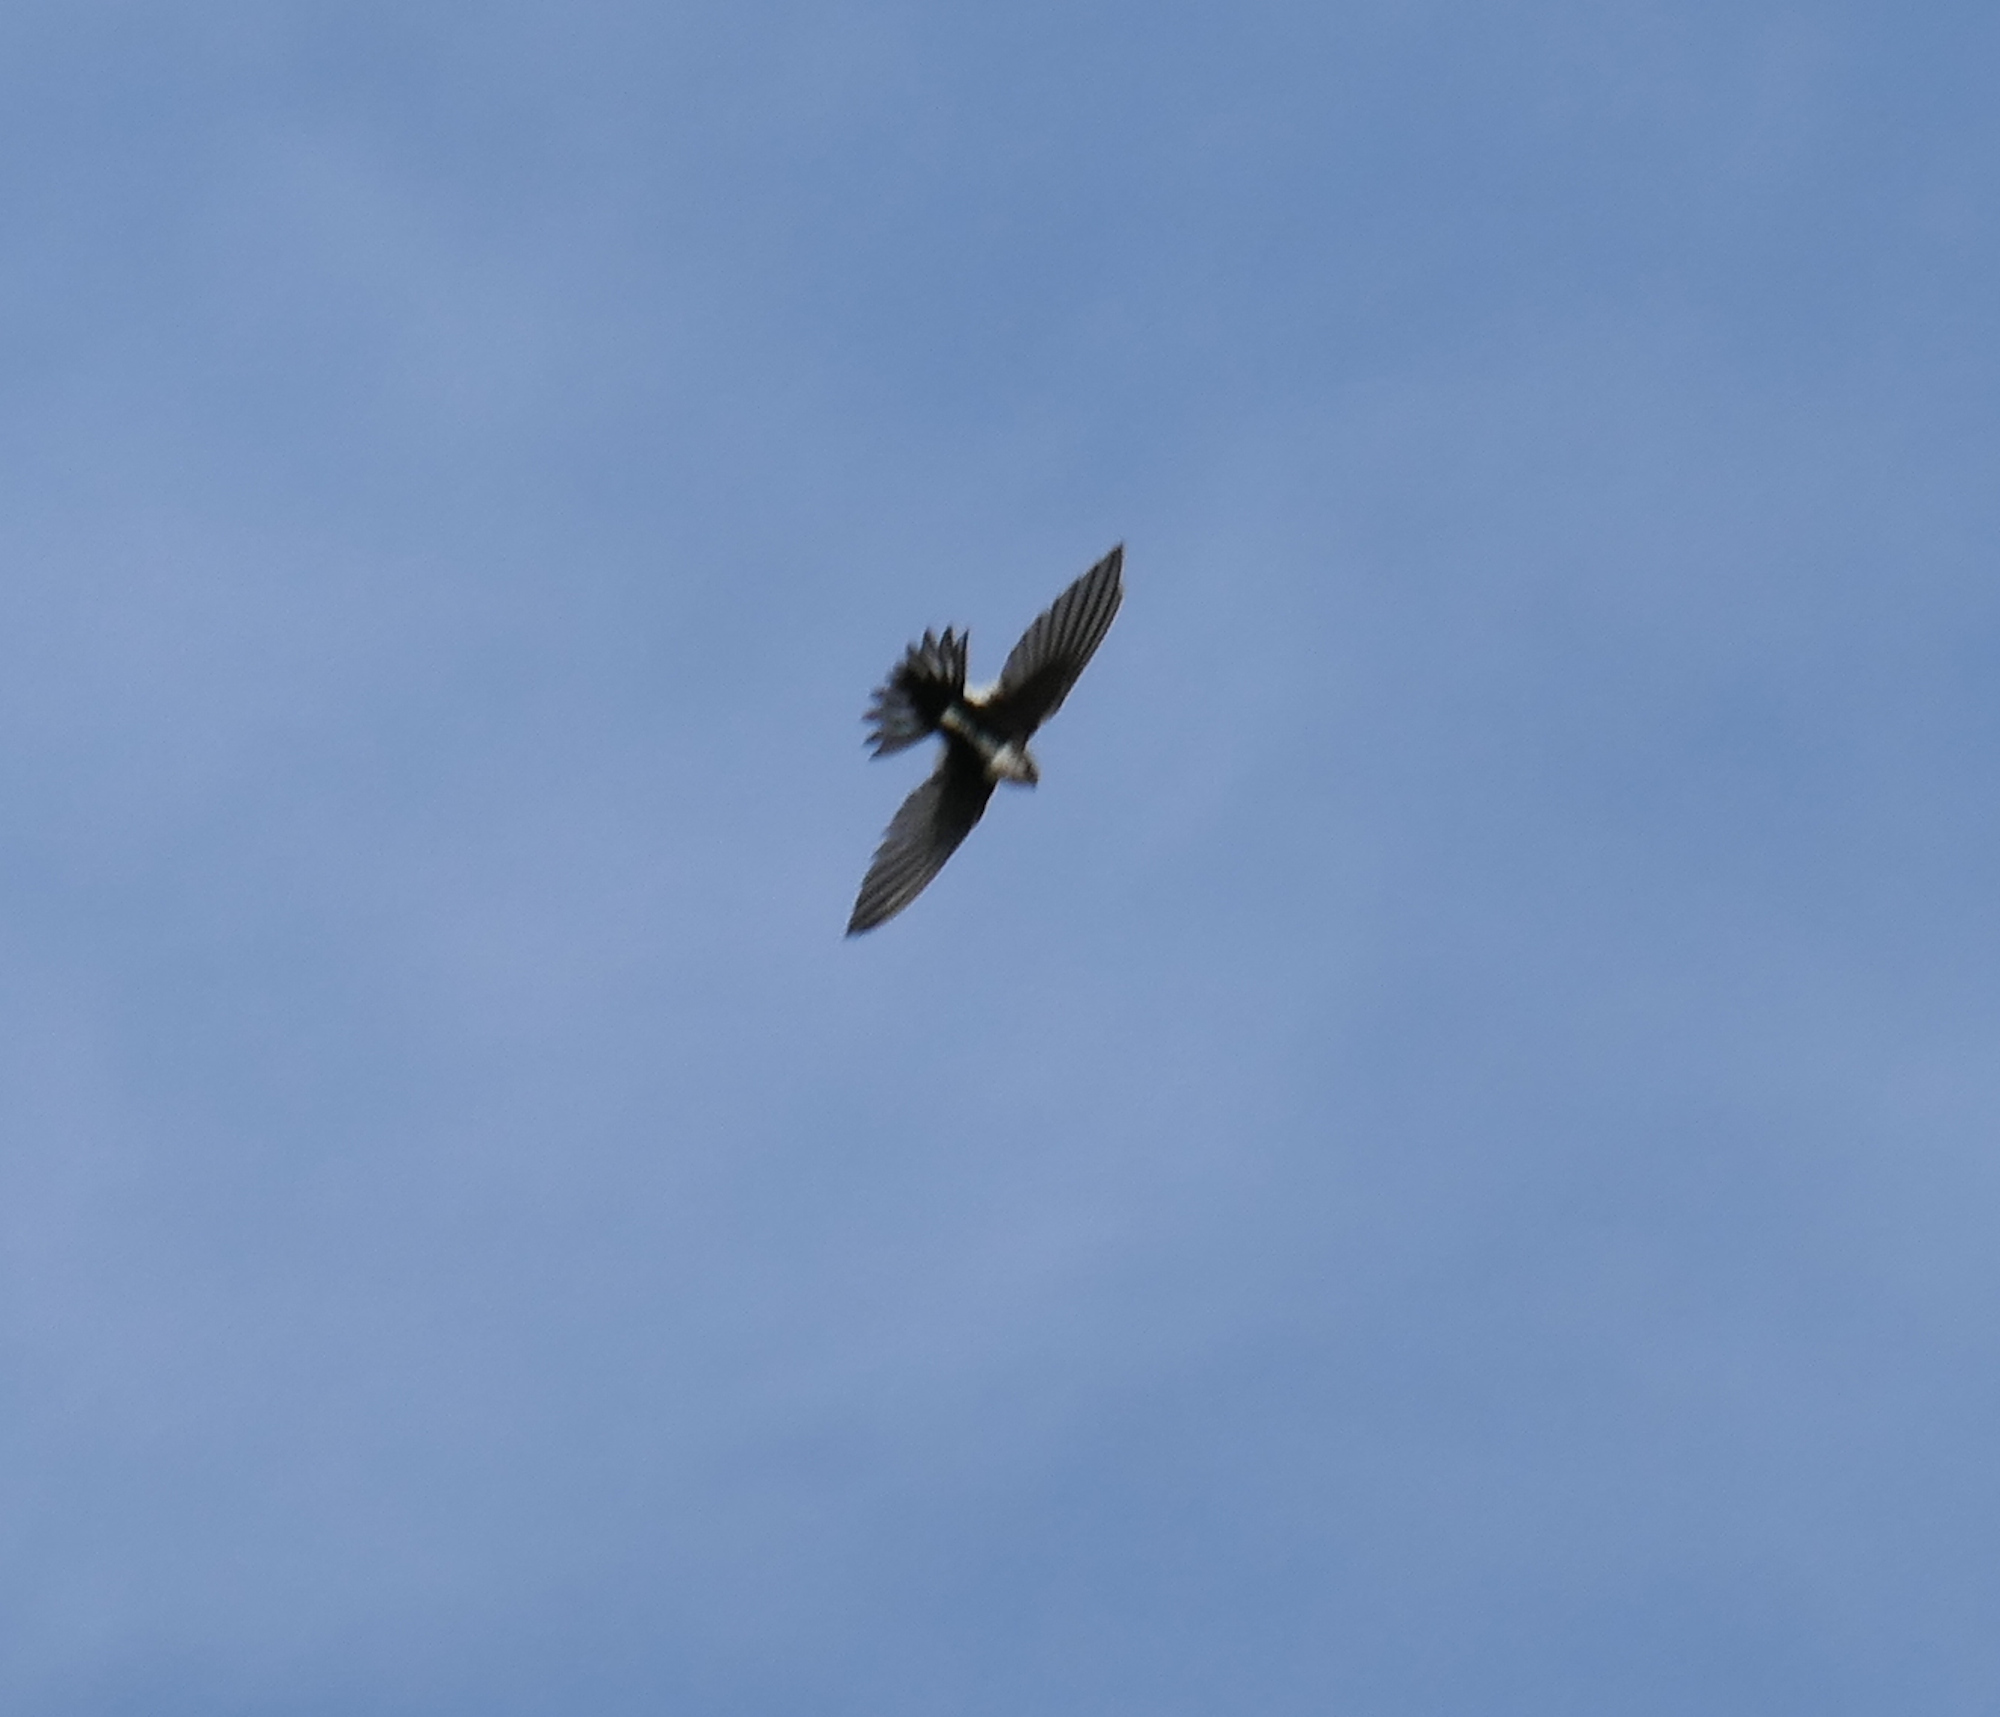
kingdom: Animalia
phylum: Chordata
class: Aves
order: Apodiformes
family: Apodidae
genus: Aeronautes
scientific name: Aeronautes saxatalis
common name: White-throated swift
